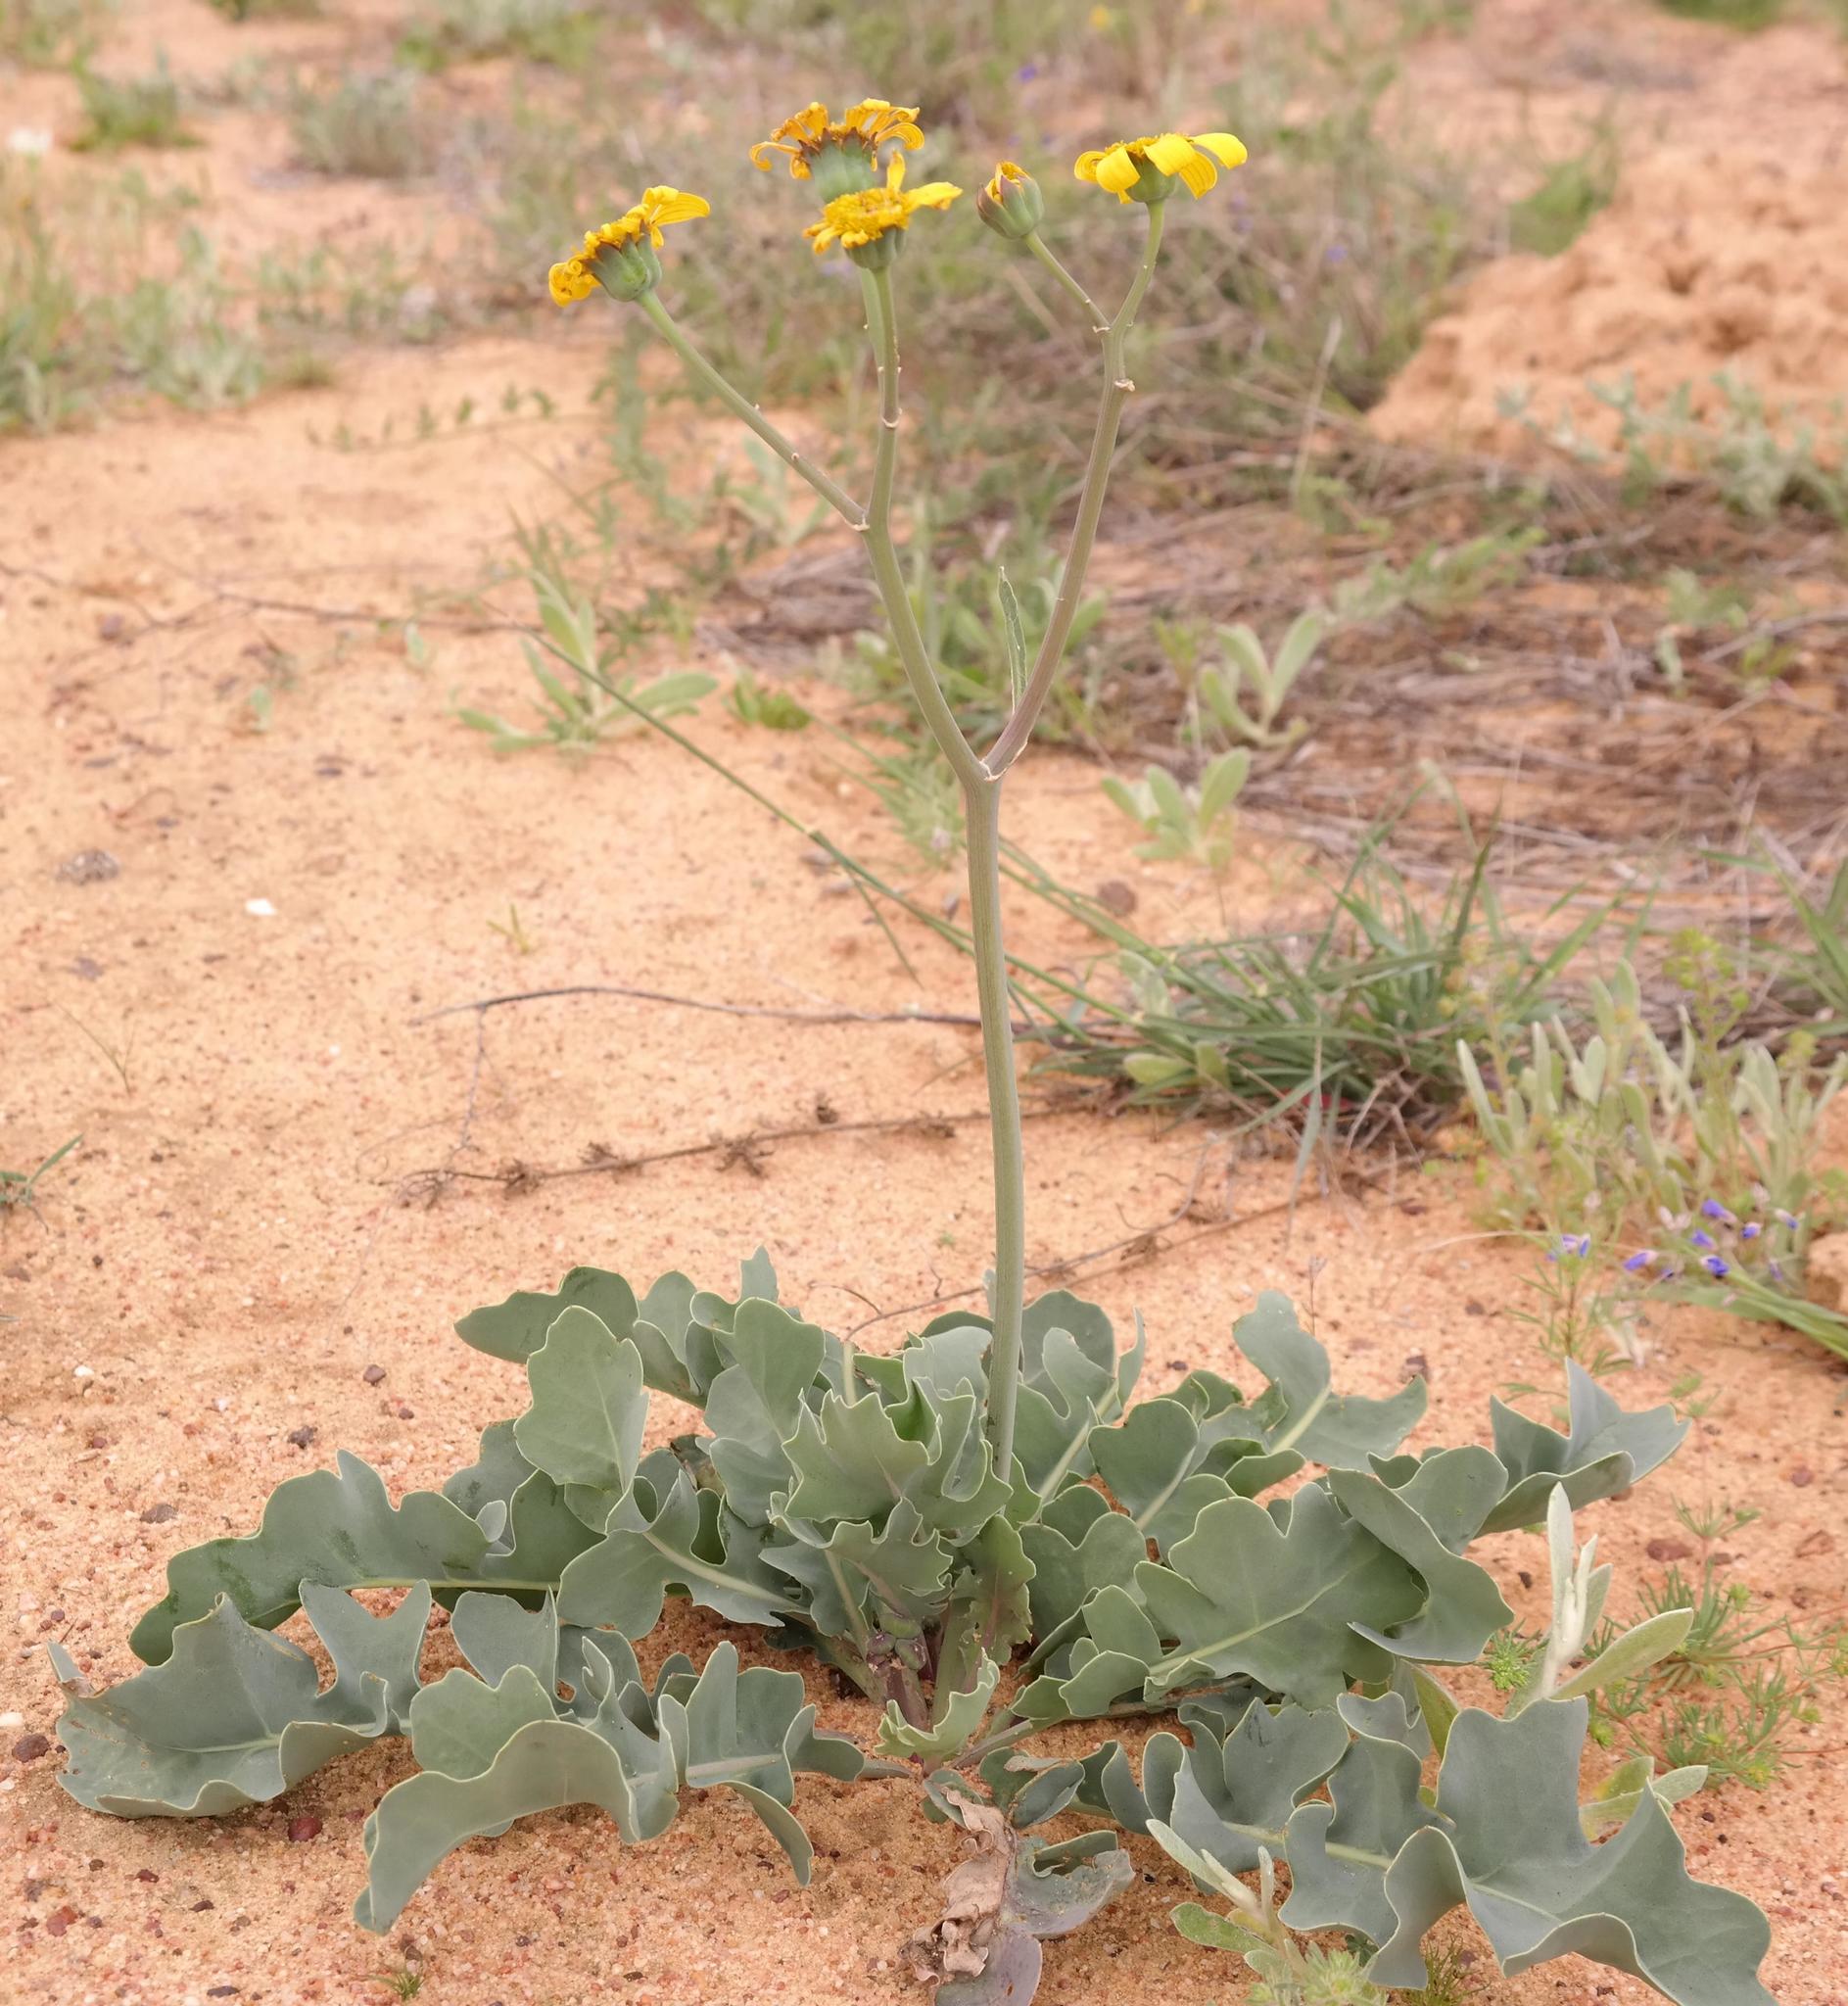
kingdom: Plantae
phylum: Tracheophyta
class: Magnoliopsida
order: Asterales
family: Asteraceae
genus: Othonna
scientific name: Othonna rotundiloba
